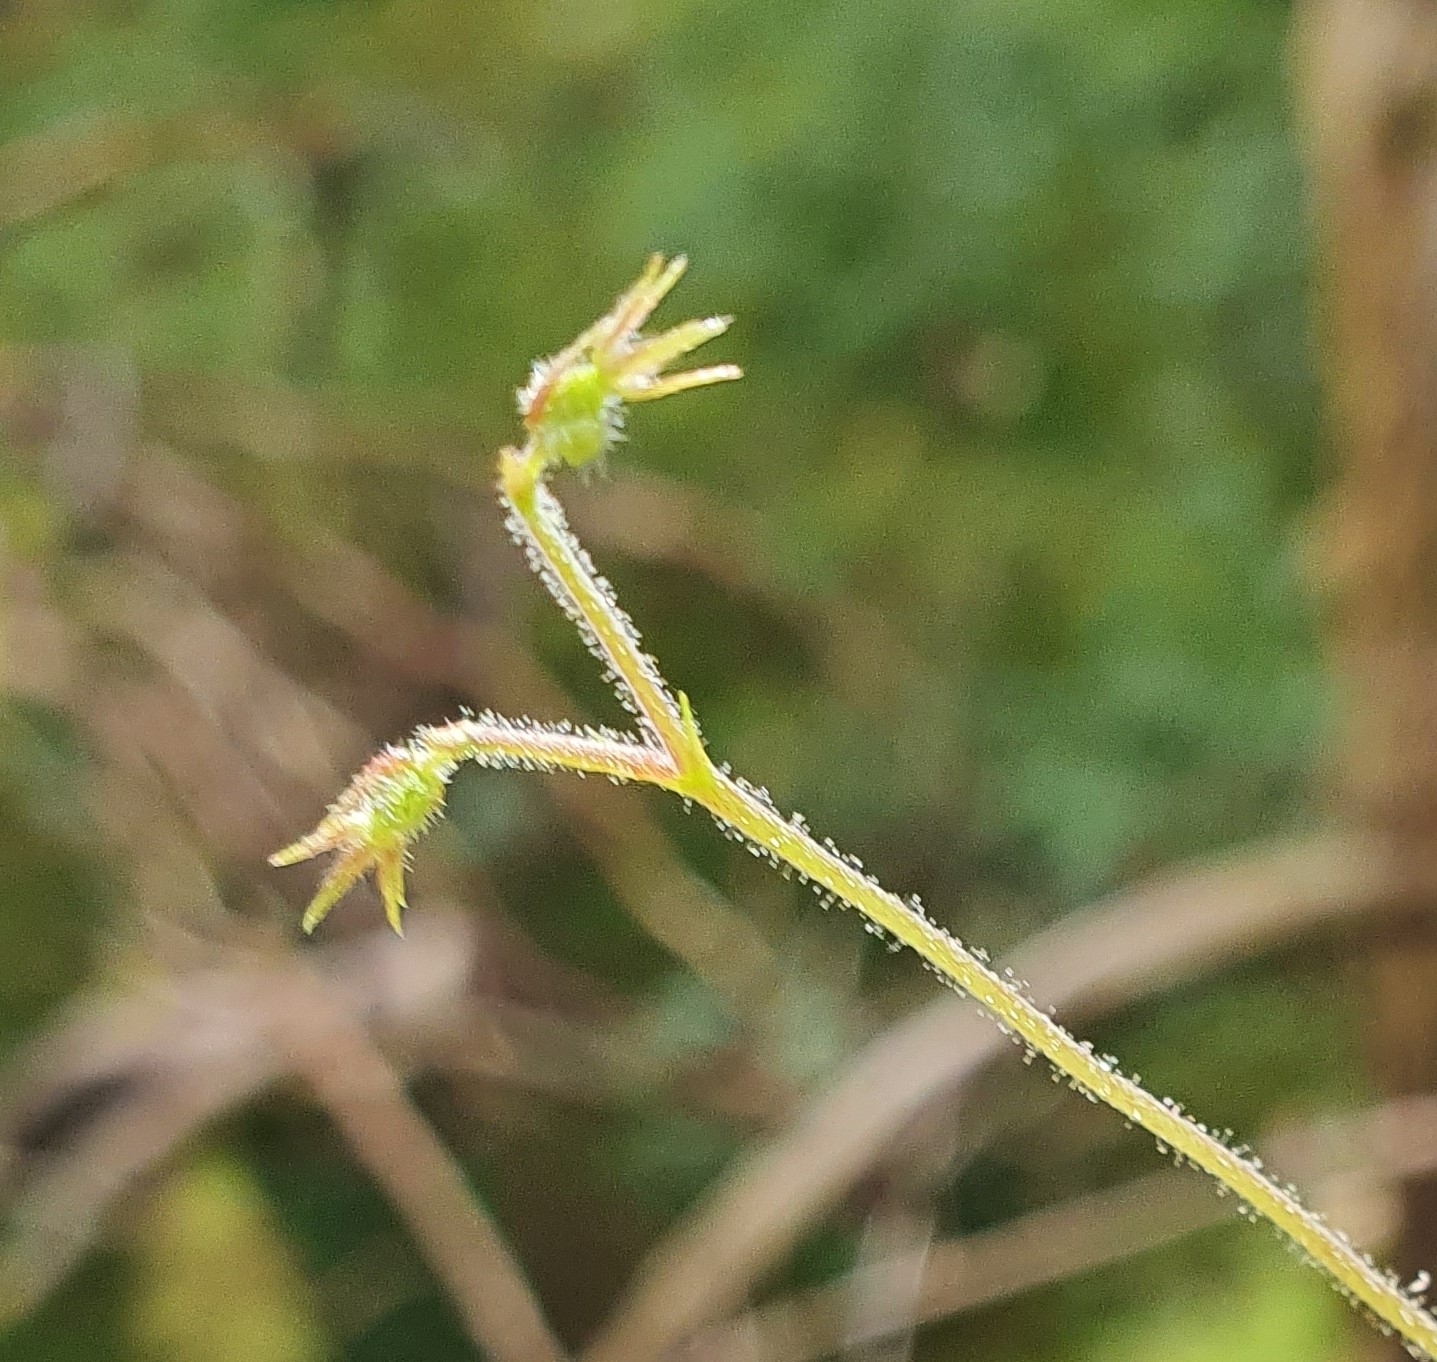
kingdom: Plantae
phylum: Tracheophyta
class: Magnoliopsida
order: Dipsacales
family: Caprifoliaceae
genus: Linnaea
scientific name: Linnaea borealis
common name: Twinflower
